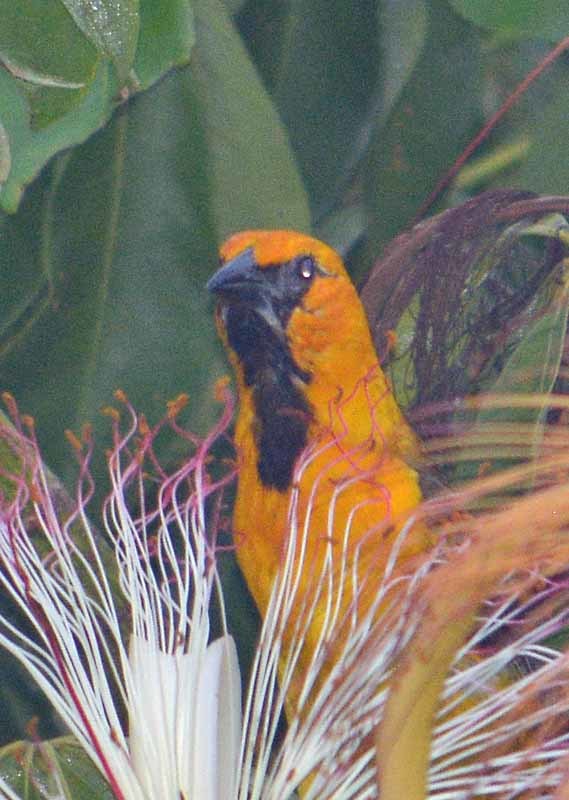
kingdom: Animalia
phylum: Chordata
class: Aves
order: Passeriformes
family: Icteridae
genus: Icterus
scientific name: Icterus gularis
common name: Altamira oriole
